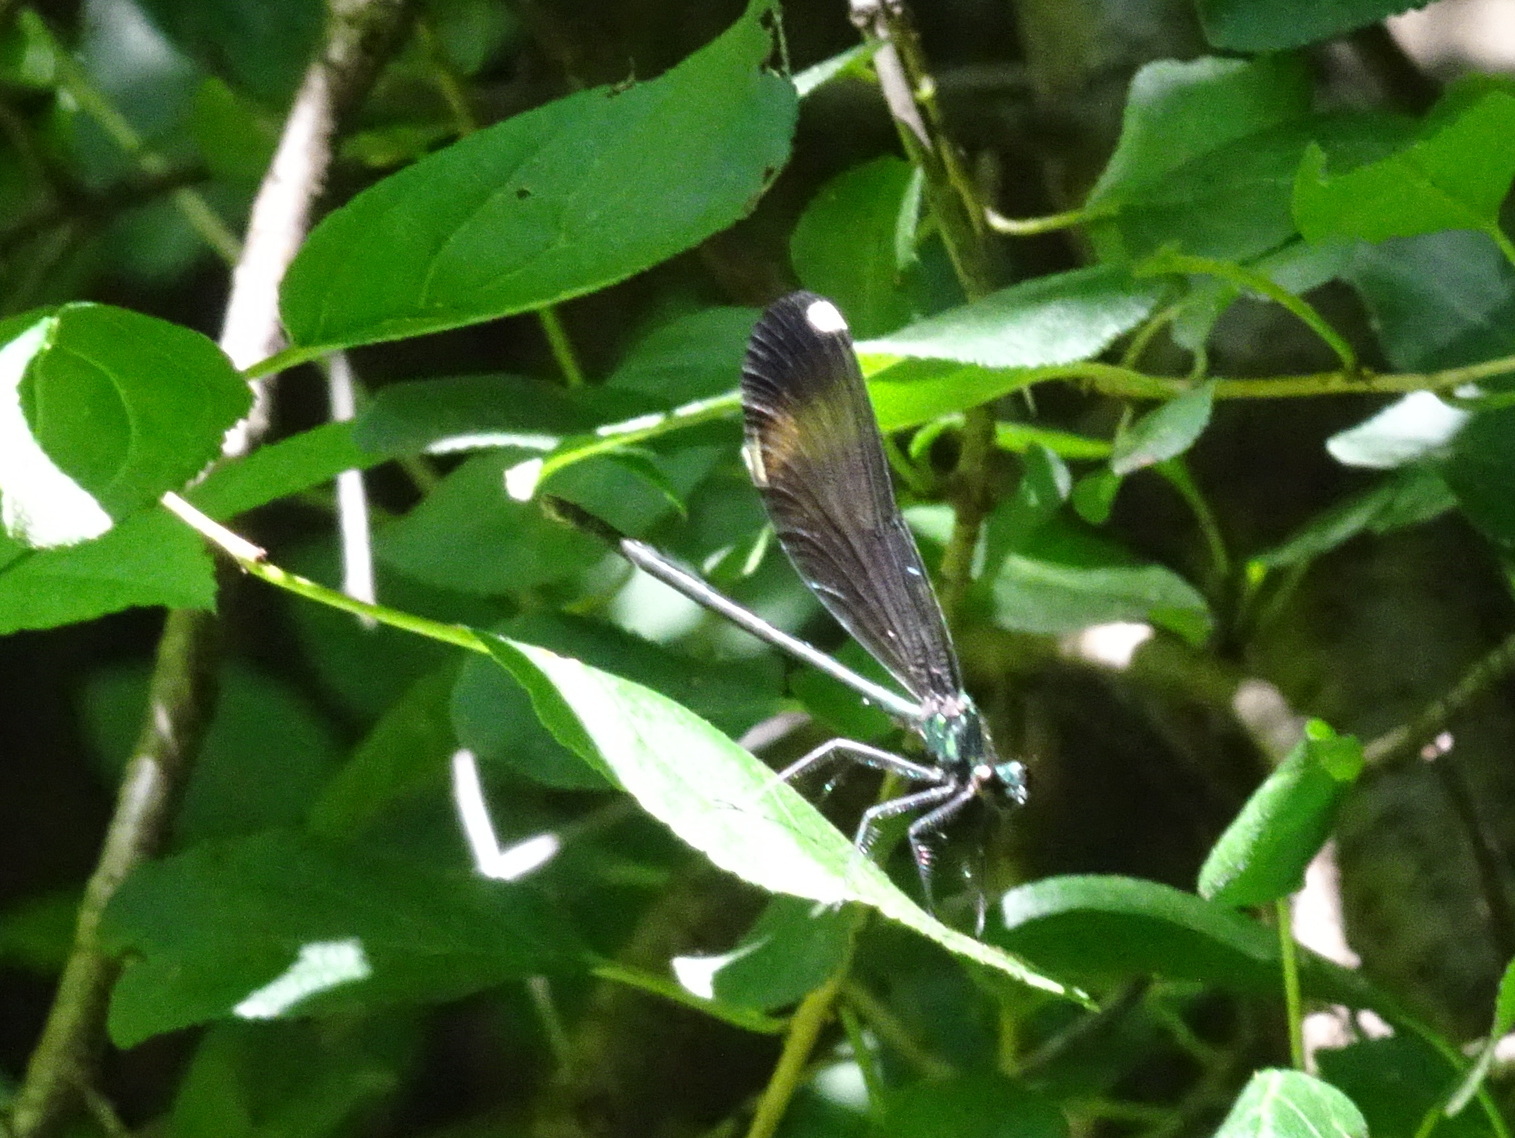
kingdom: Animalia
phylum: Arthropoda
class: Insecta
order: Odonata
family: Calopterygidae
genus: Calopteryx
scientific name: Calopteryx maculata
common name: Ebony jewelwing
